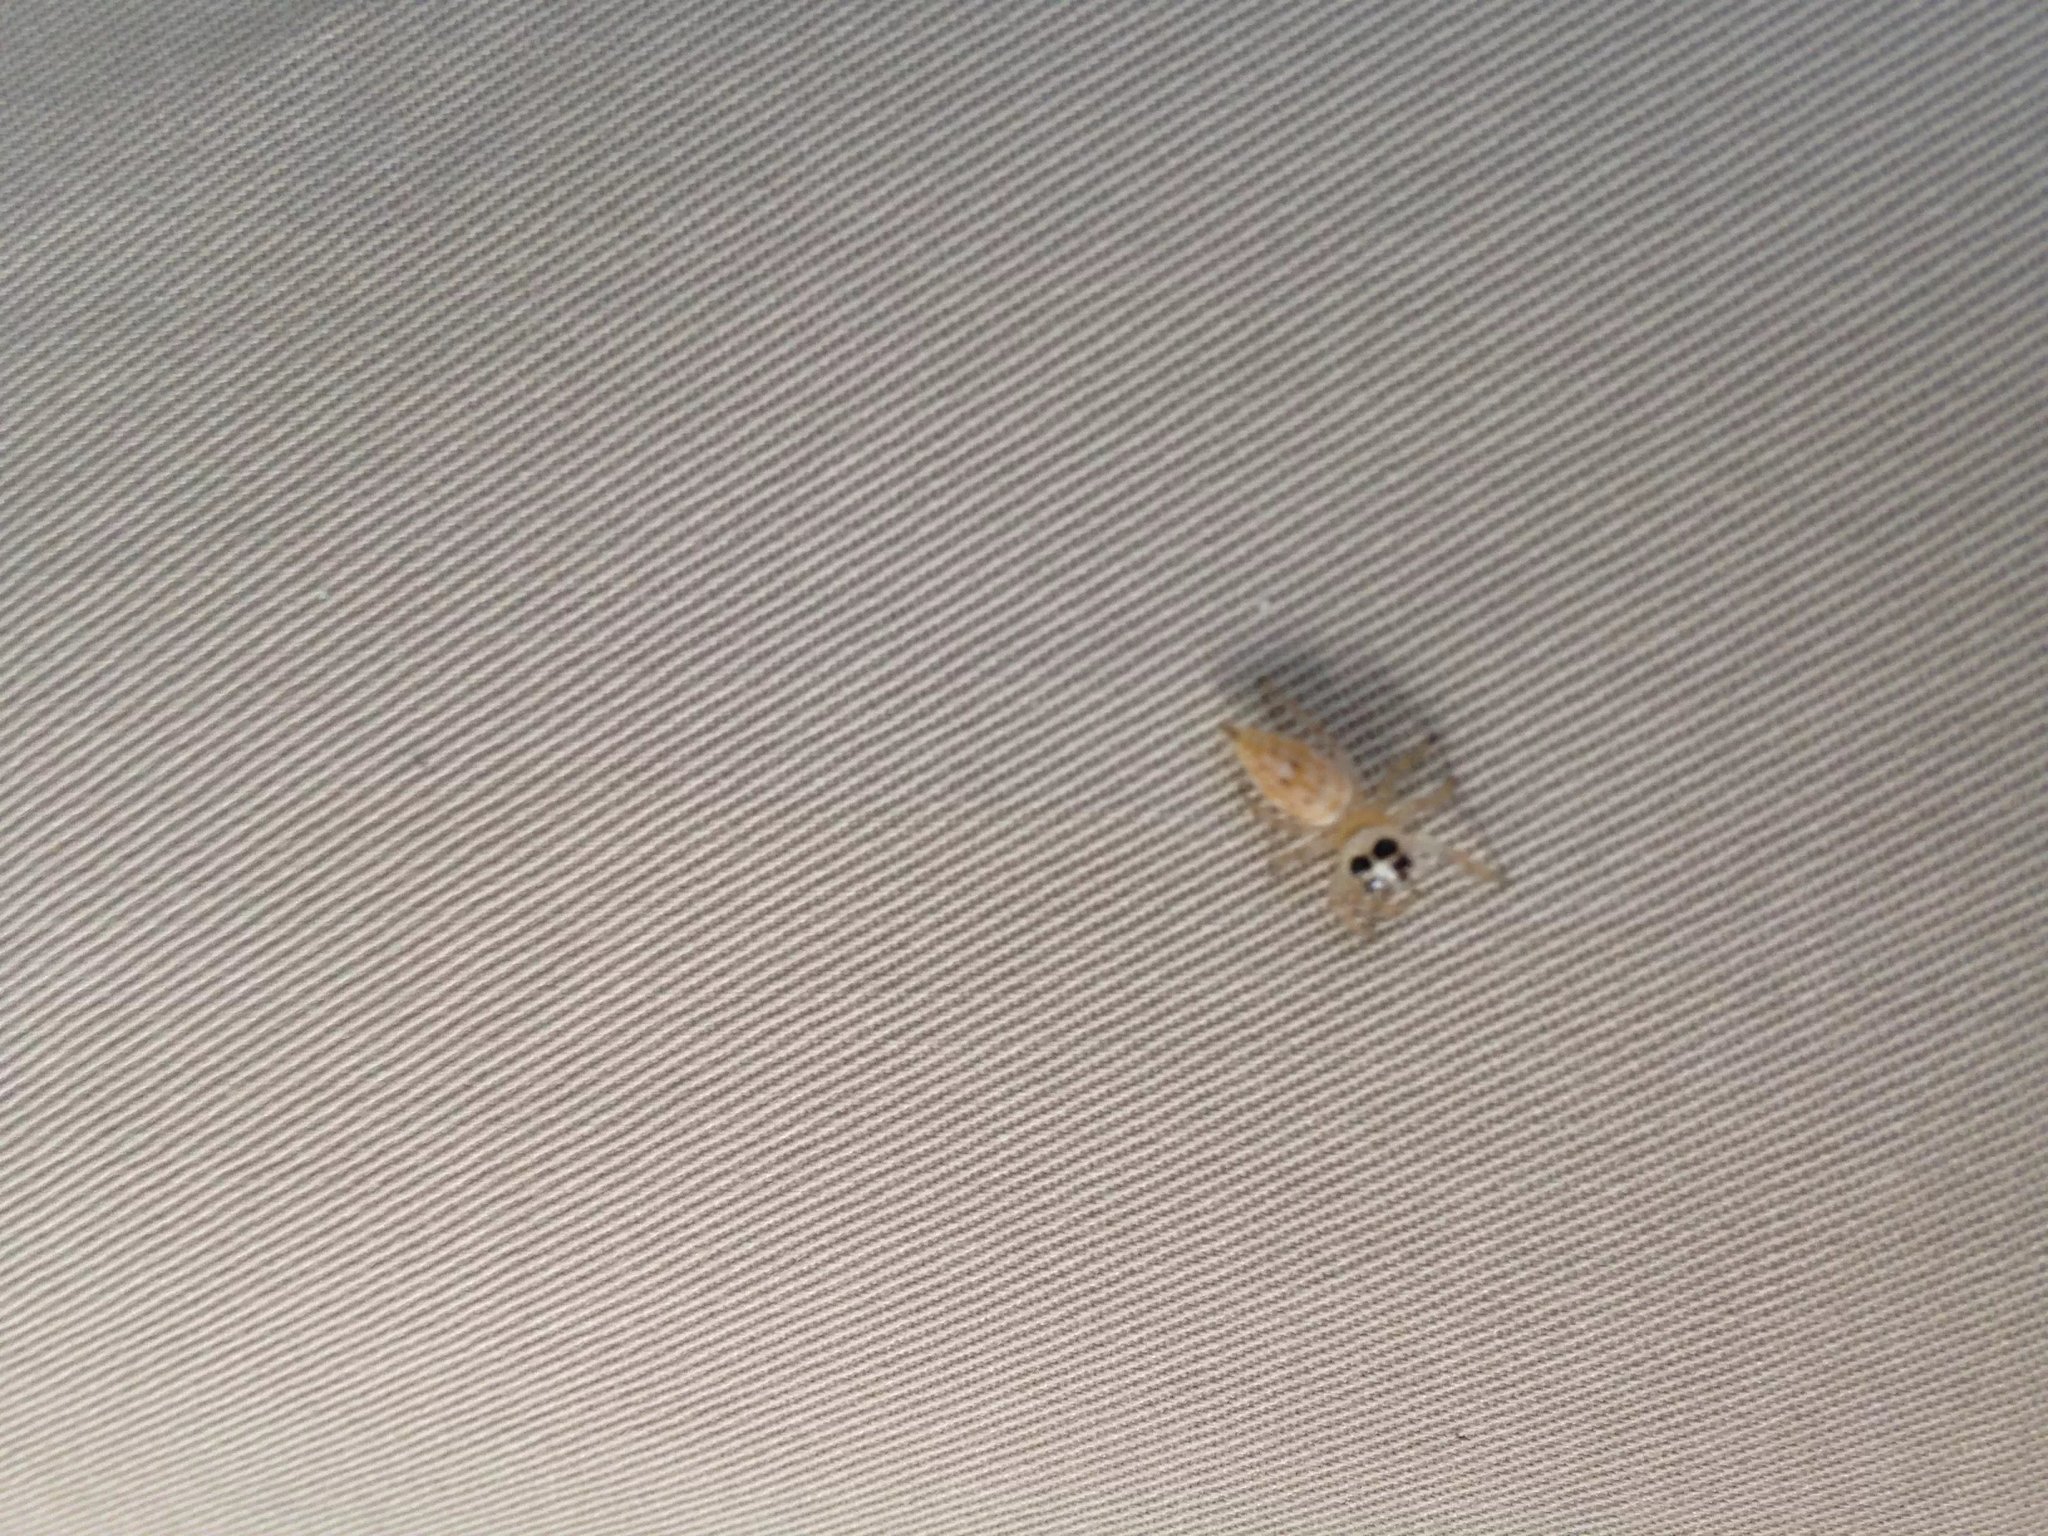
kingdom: Animalia
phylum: Arthropoda
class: Arachnida
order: Araneae
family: Salticidae
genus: Colonus
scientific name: Colonus hesperus
